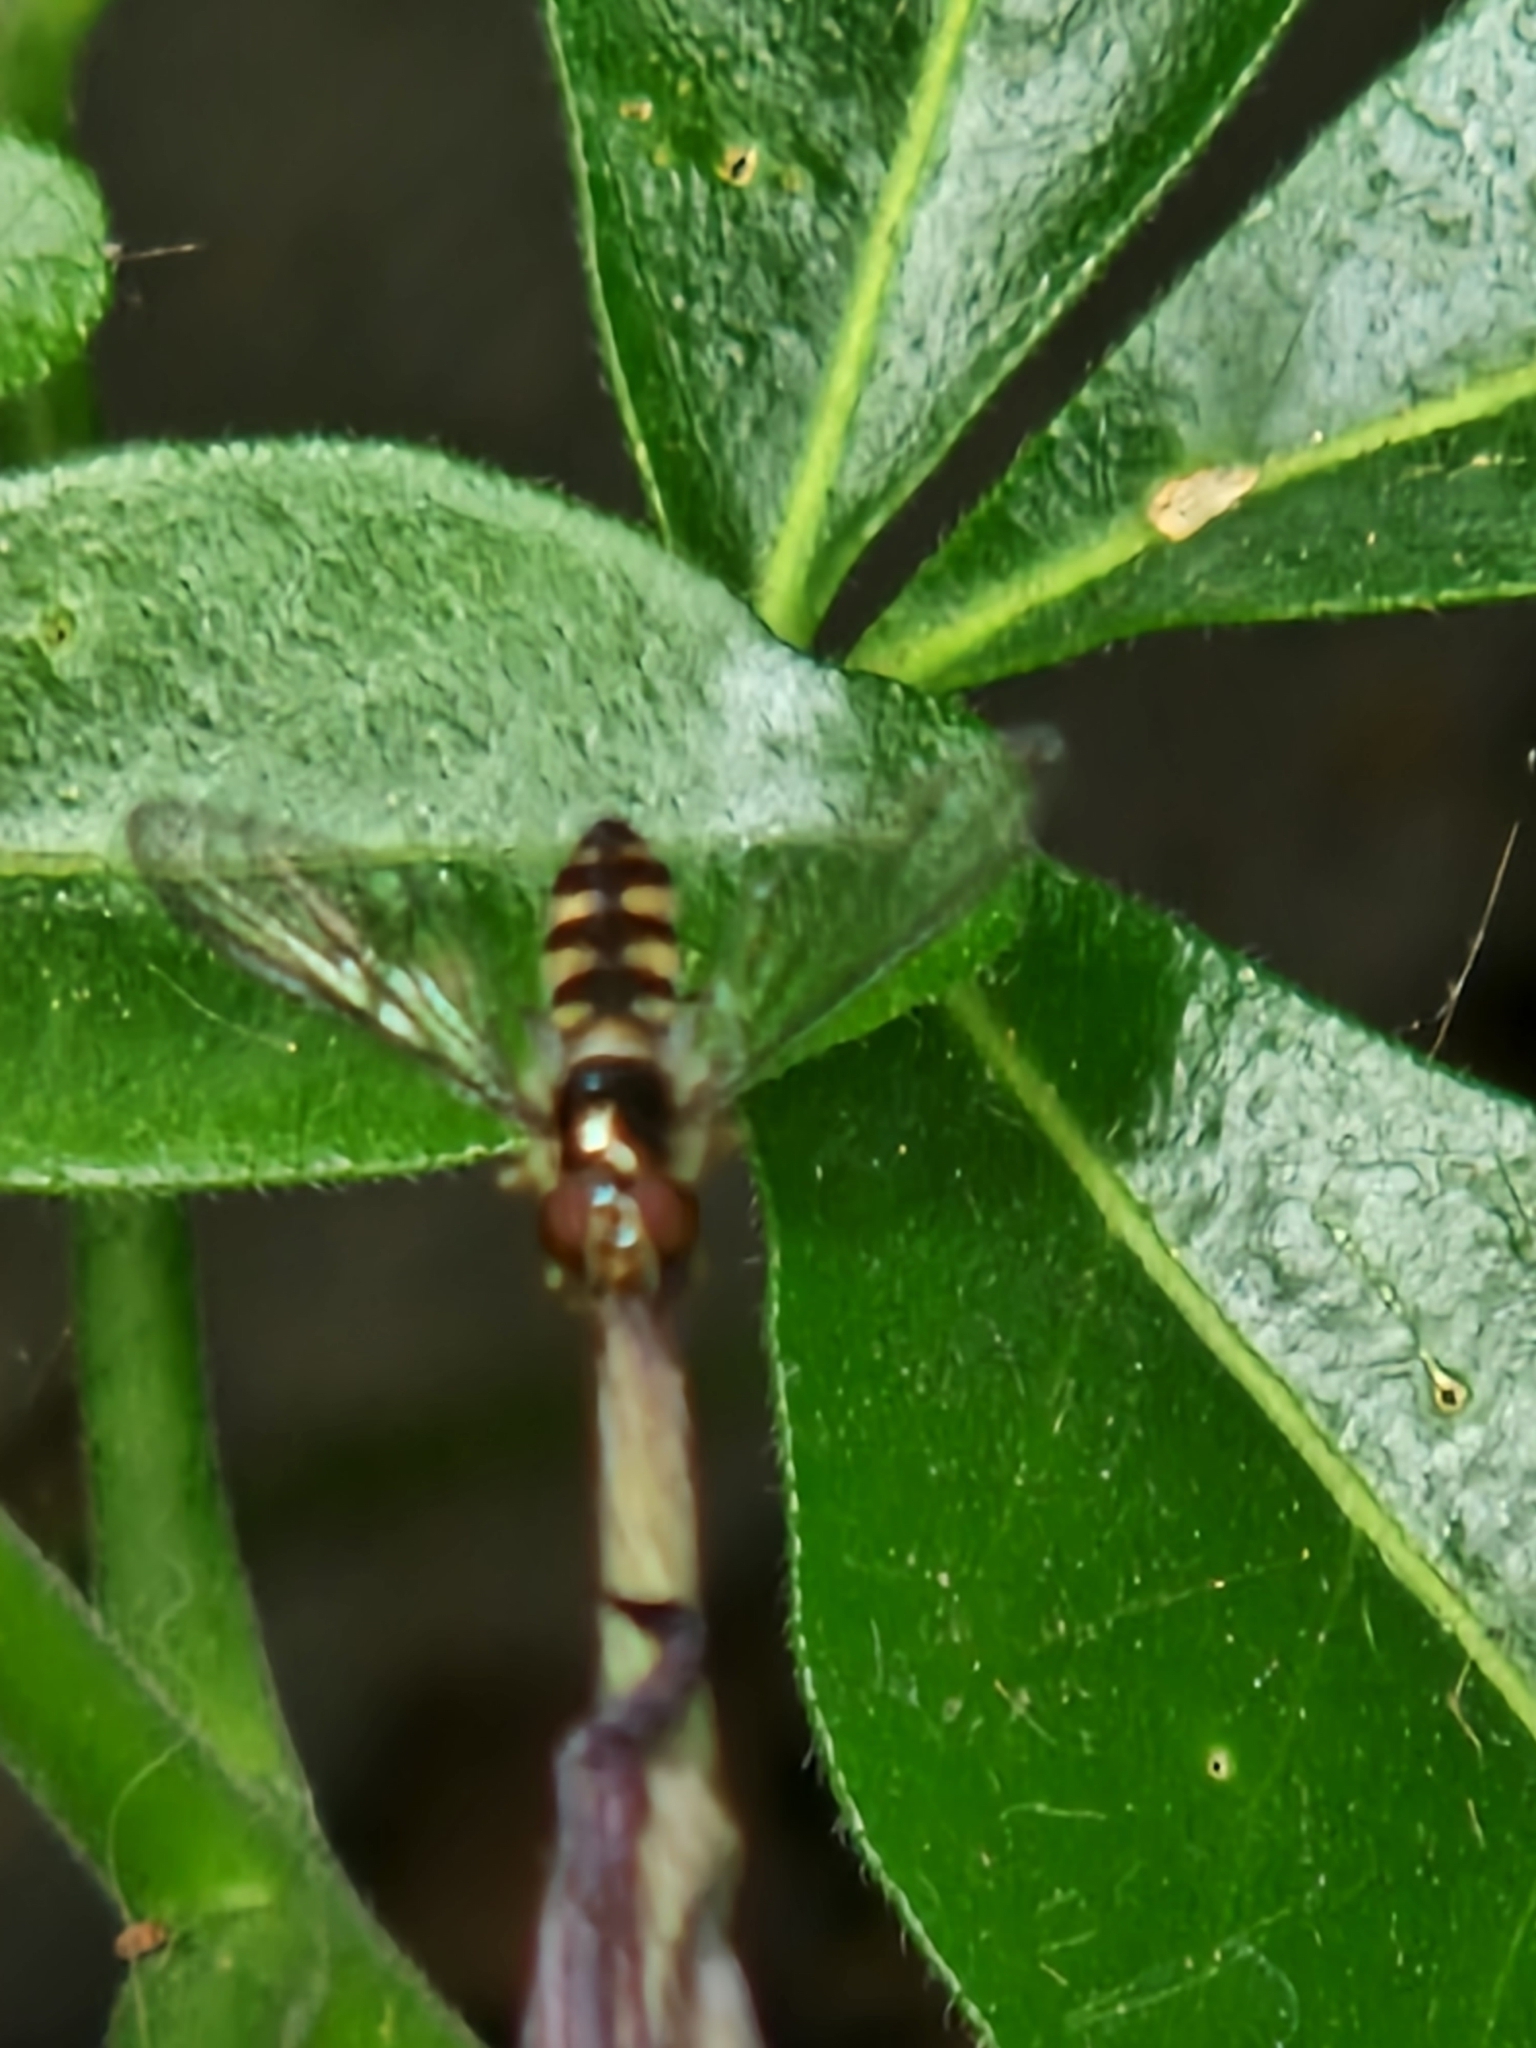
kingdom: Animalia
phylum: Arthropoda
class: Insecta
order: Diptera
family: Syrphidae
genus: Meliscaeva
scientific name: Meliscaeva auricollis
